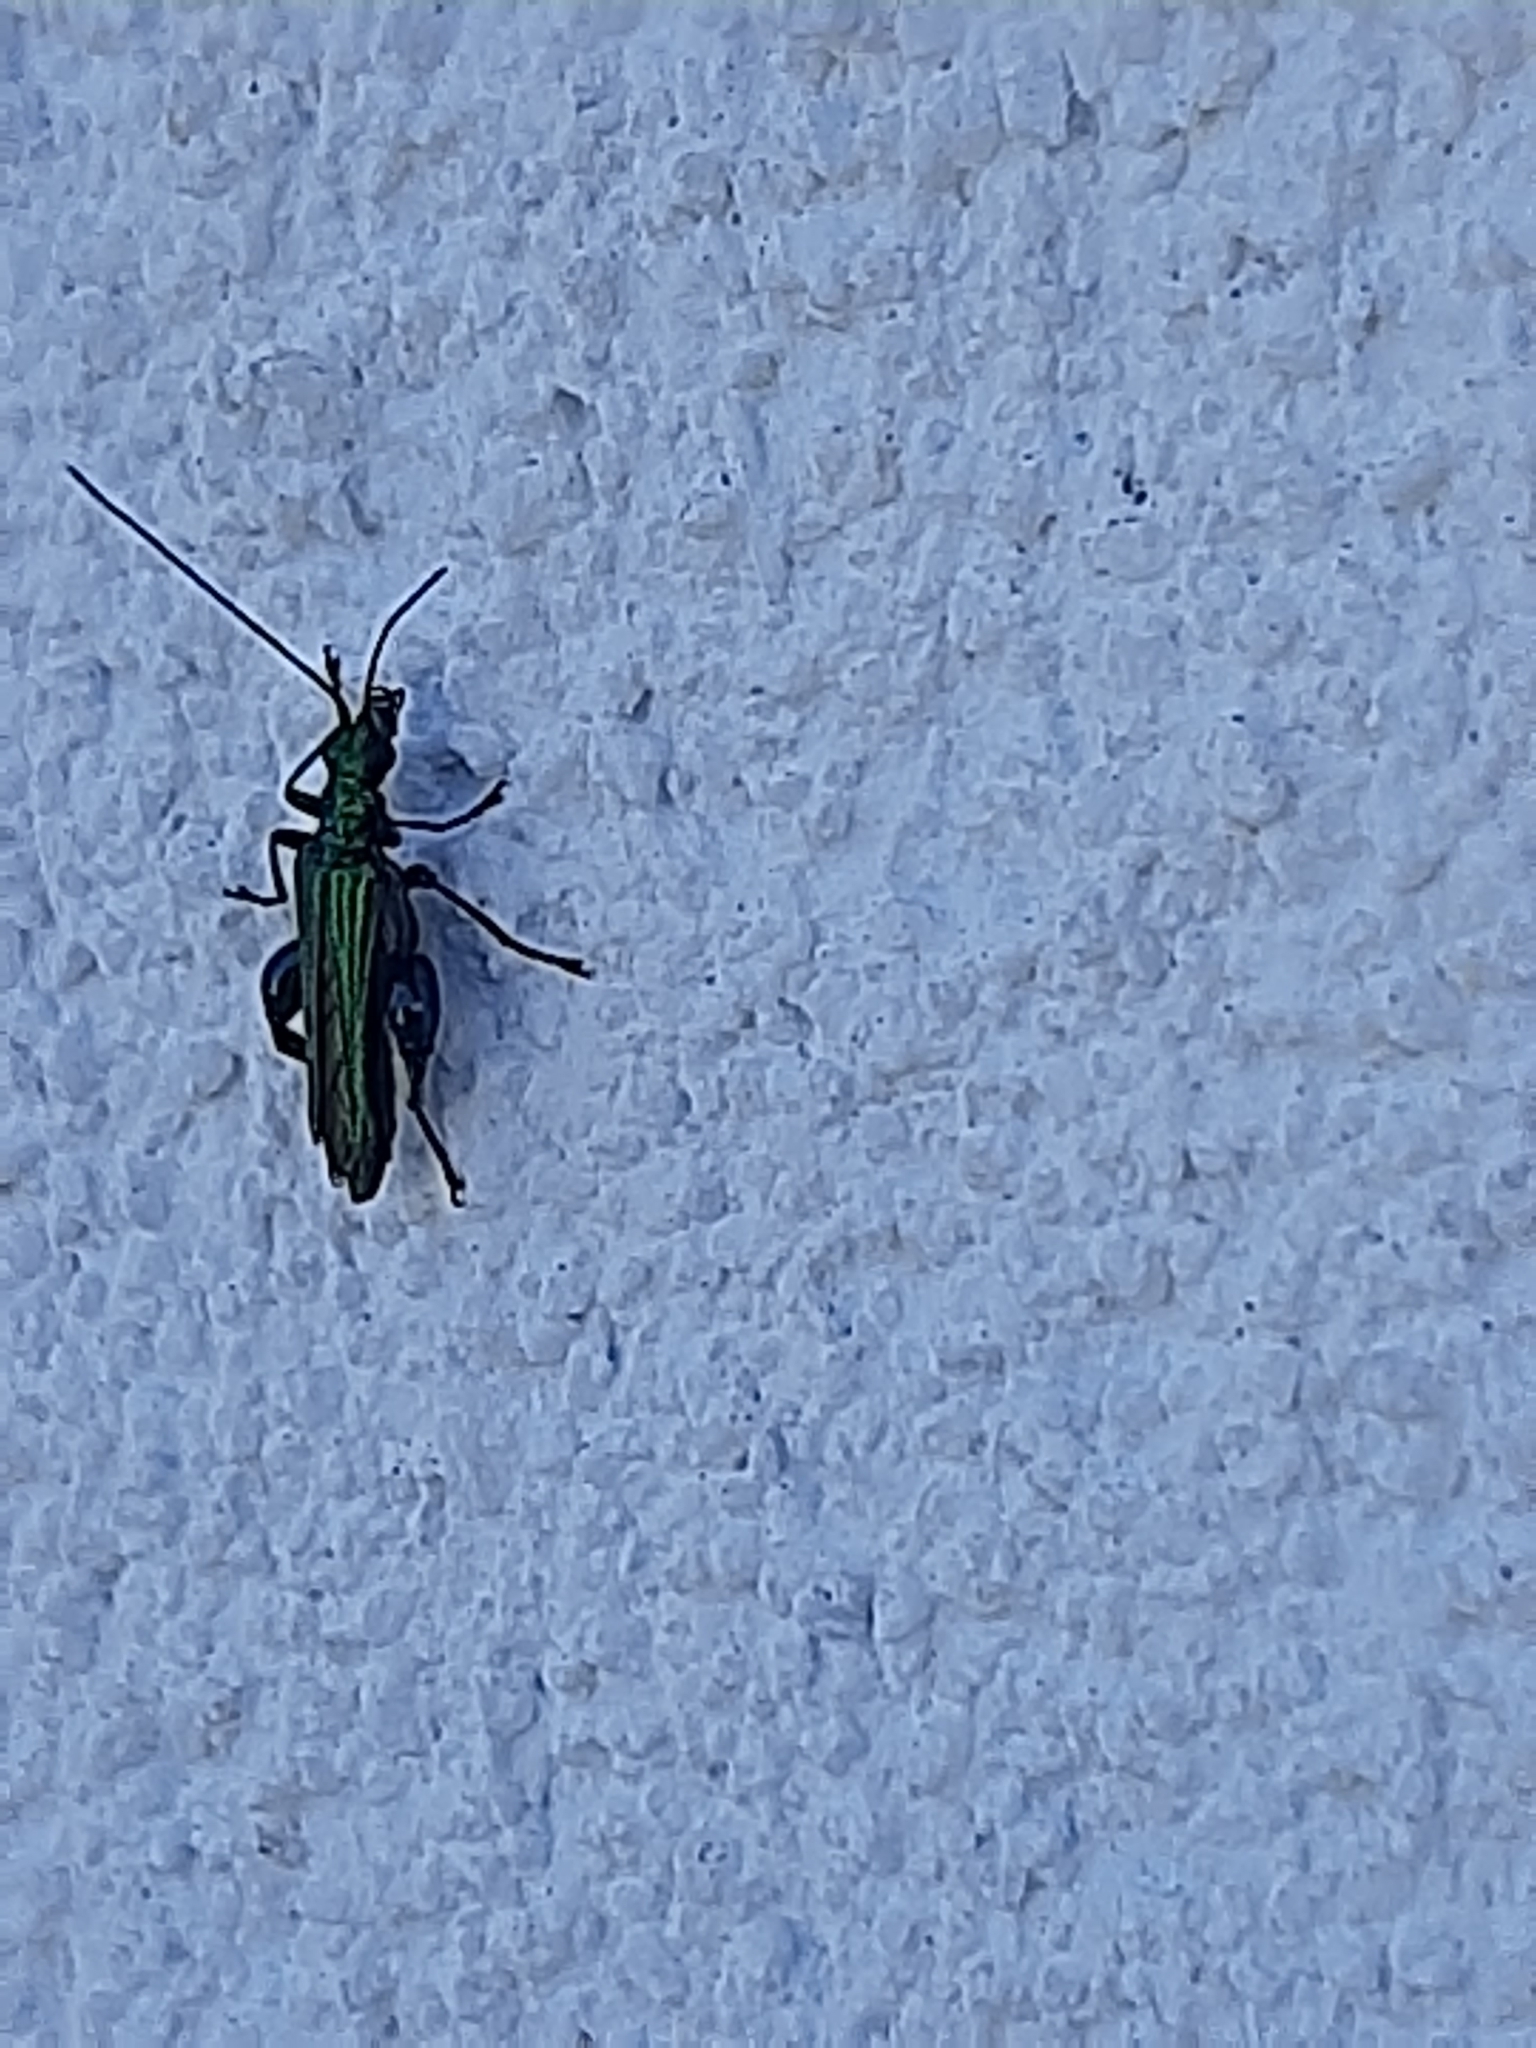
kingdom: Animalia
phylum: Arthropoda
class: Insecta
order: Coleoptera
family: Oedemeridae
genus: Oedemera
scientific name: Oedemera nobilis
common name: Swollen-thighed beetle
